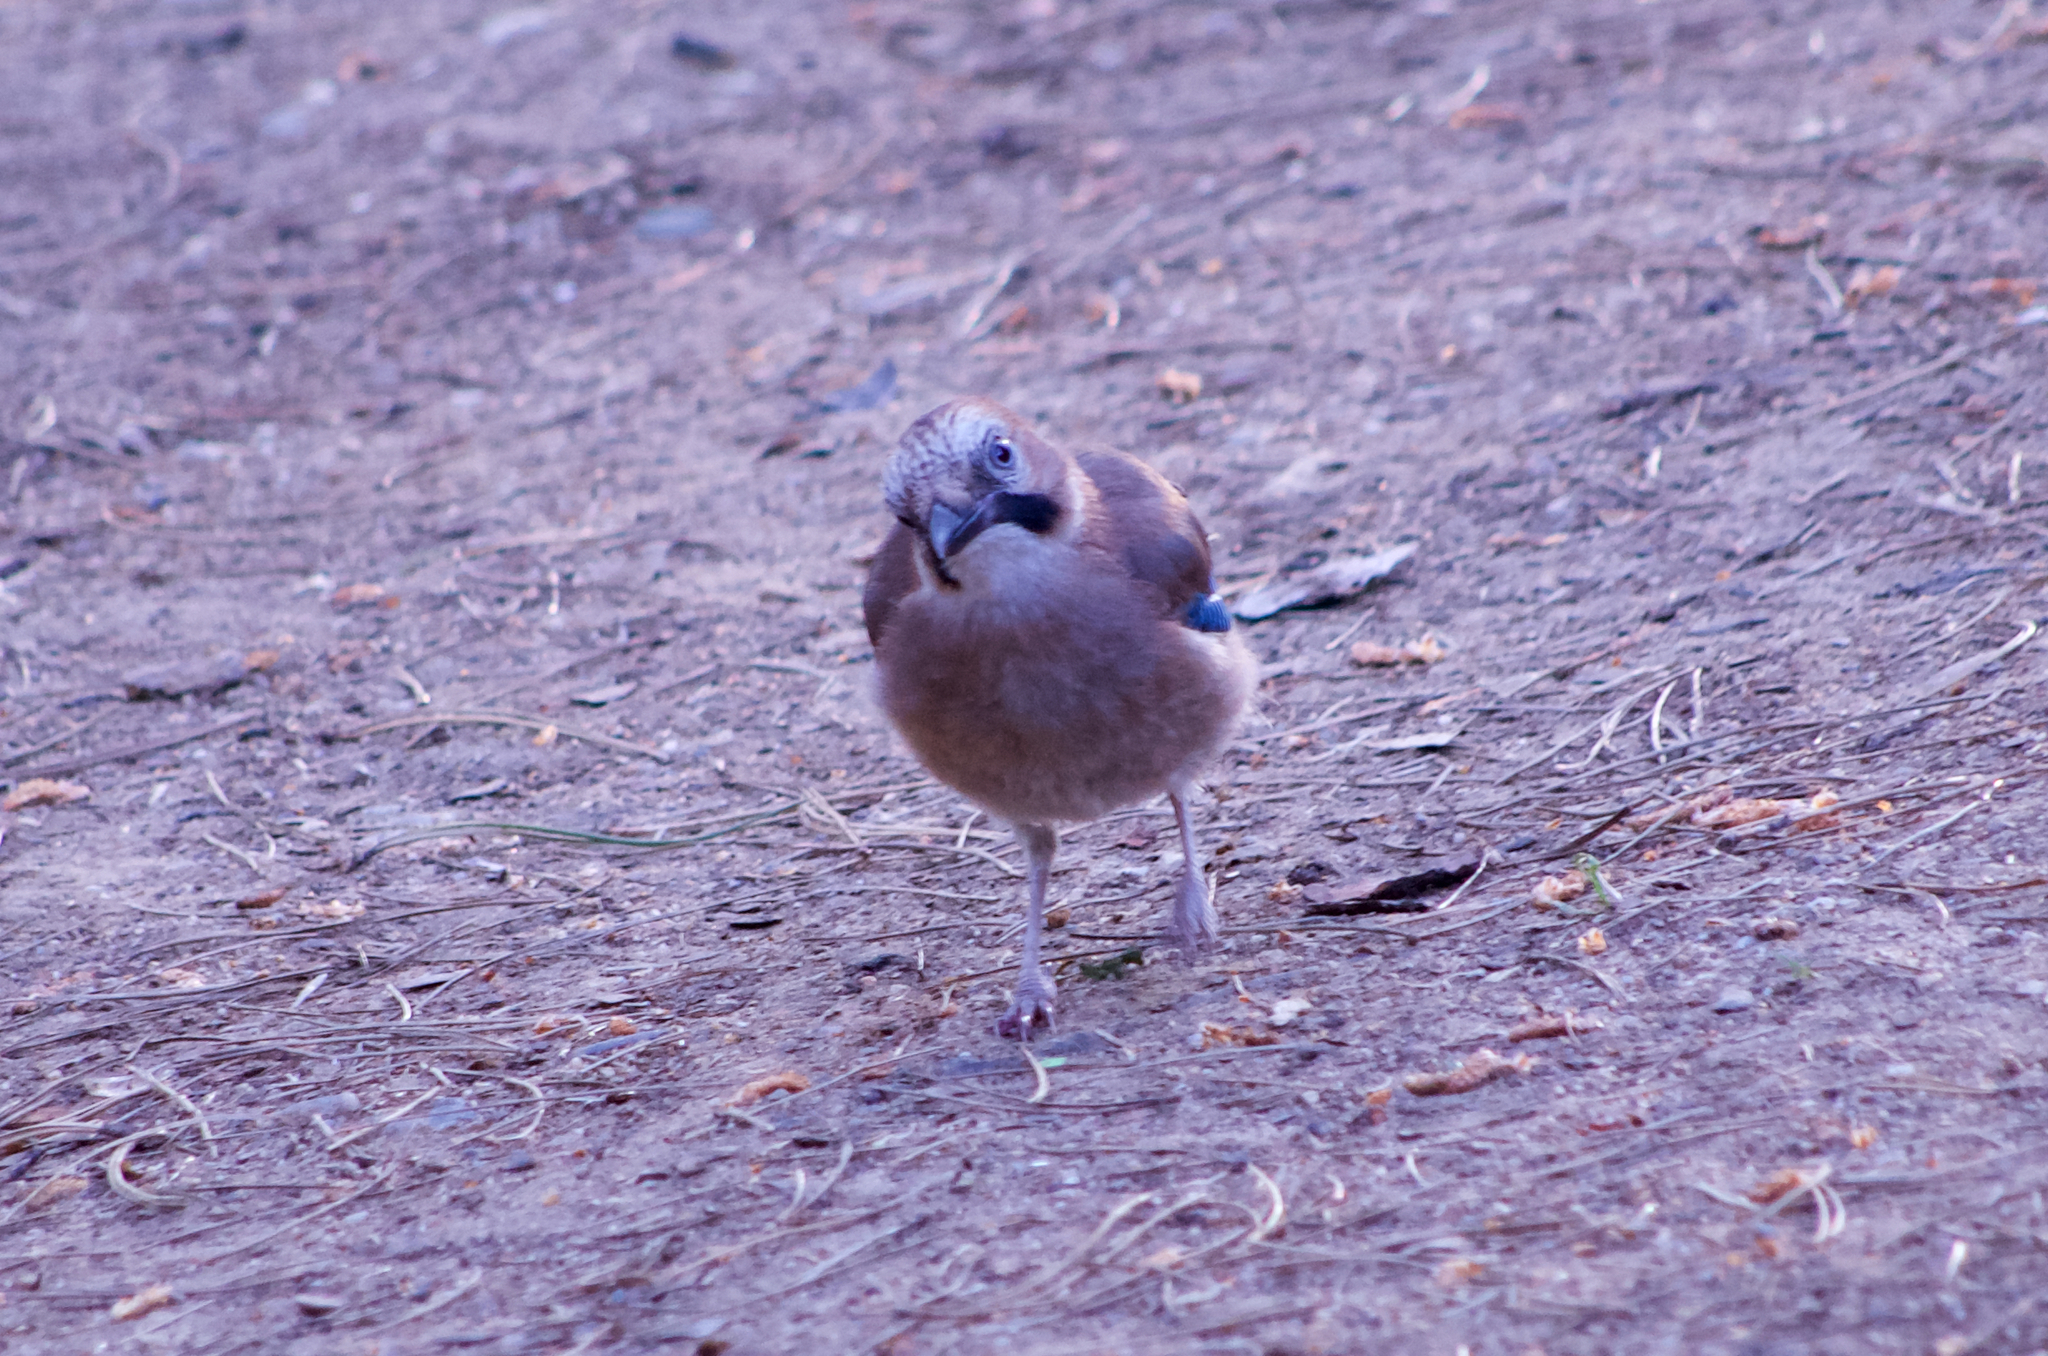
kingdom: Animalia
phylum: Chordata
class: Aves
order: Passeriformes
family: Corvidae
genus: Garrulus
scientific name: Garrulus glandarius
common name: Eurasian jay
